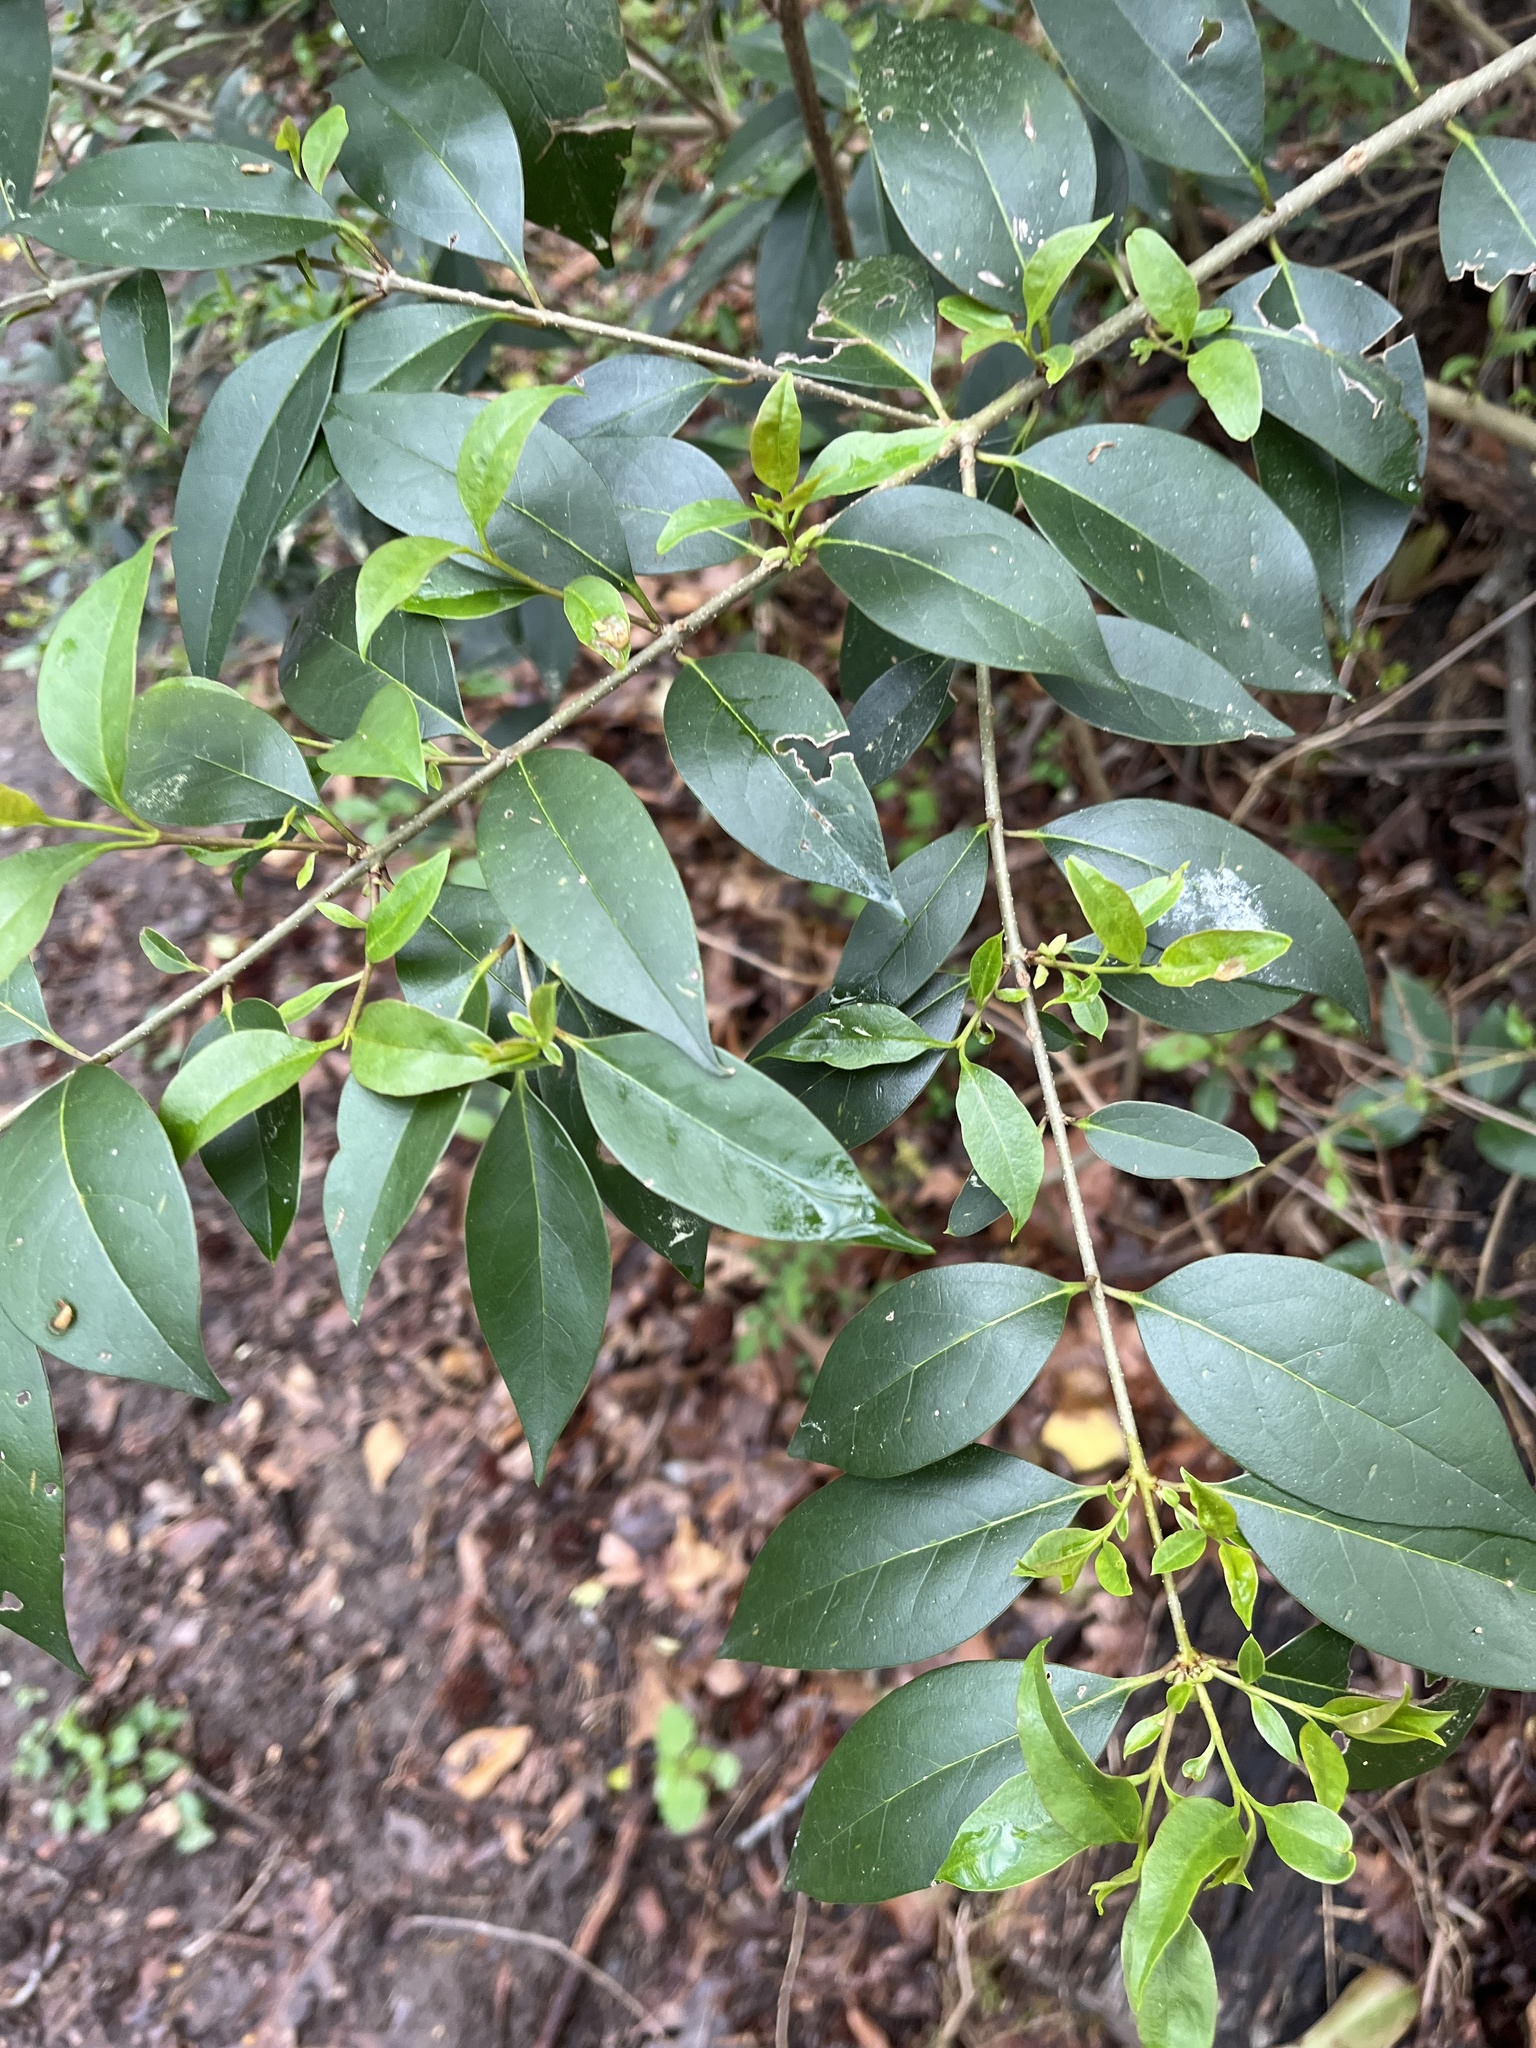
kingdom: Plantae
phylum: Tracheophyta
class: Magnoliopsida
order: Lamiales
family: Oleaceae
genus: Ligustrum
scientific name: Ligustrum lucidum
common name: Glossy privet
